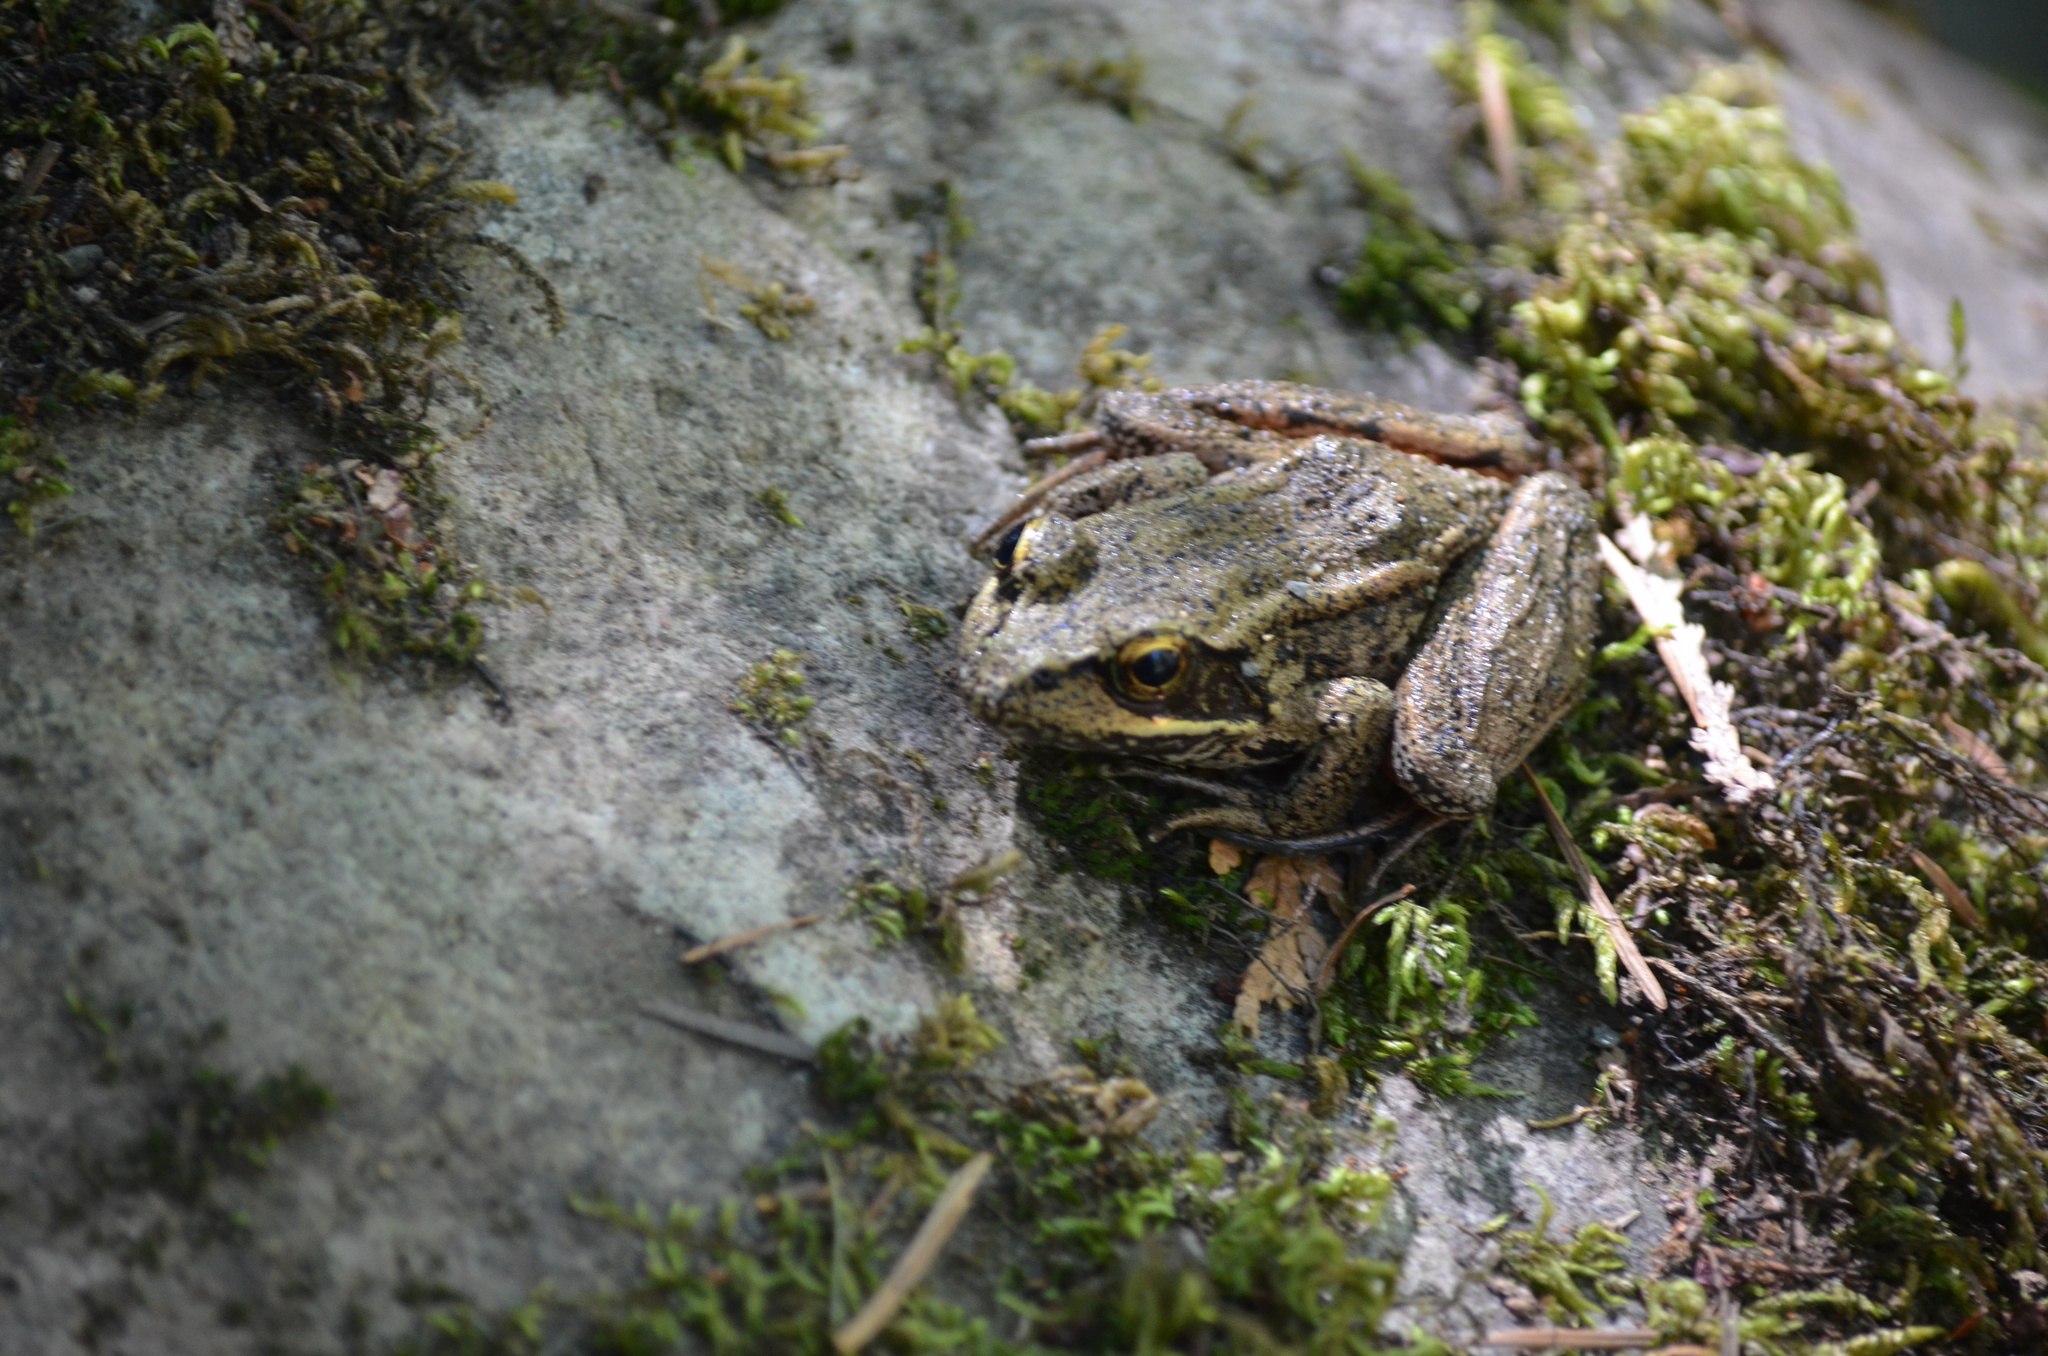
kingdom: Animalia
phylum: Chordata
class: Amphibia
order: Anura
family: Ranidae
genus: Rana
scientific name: Rana aurora
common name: Red-legged frog
